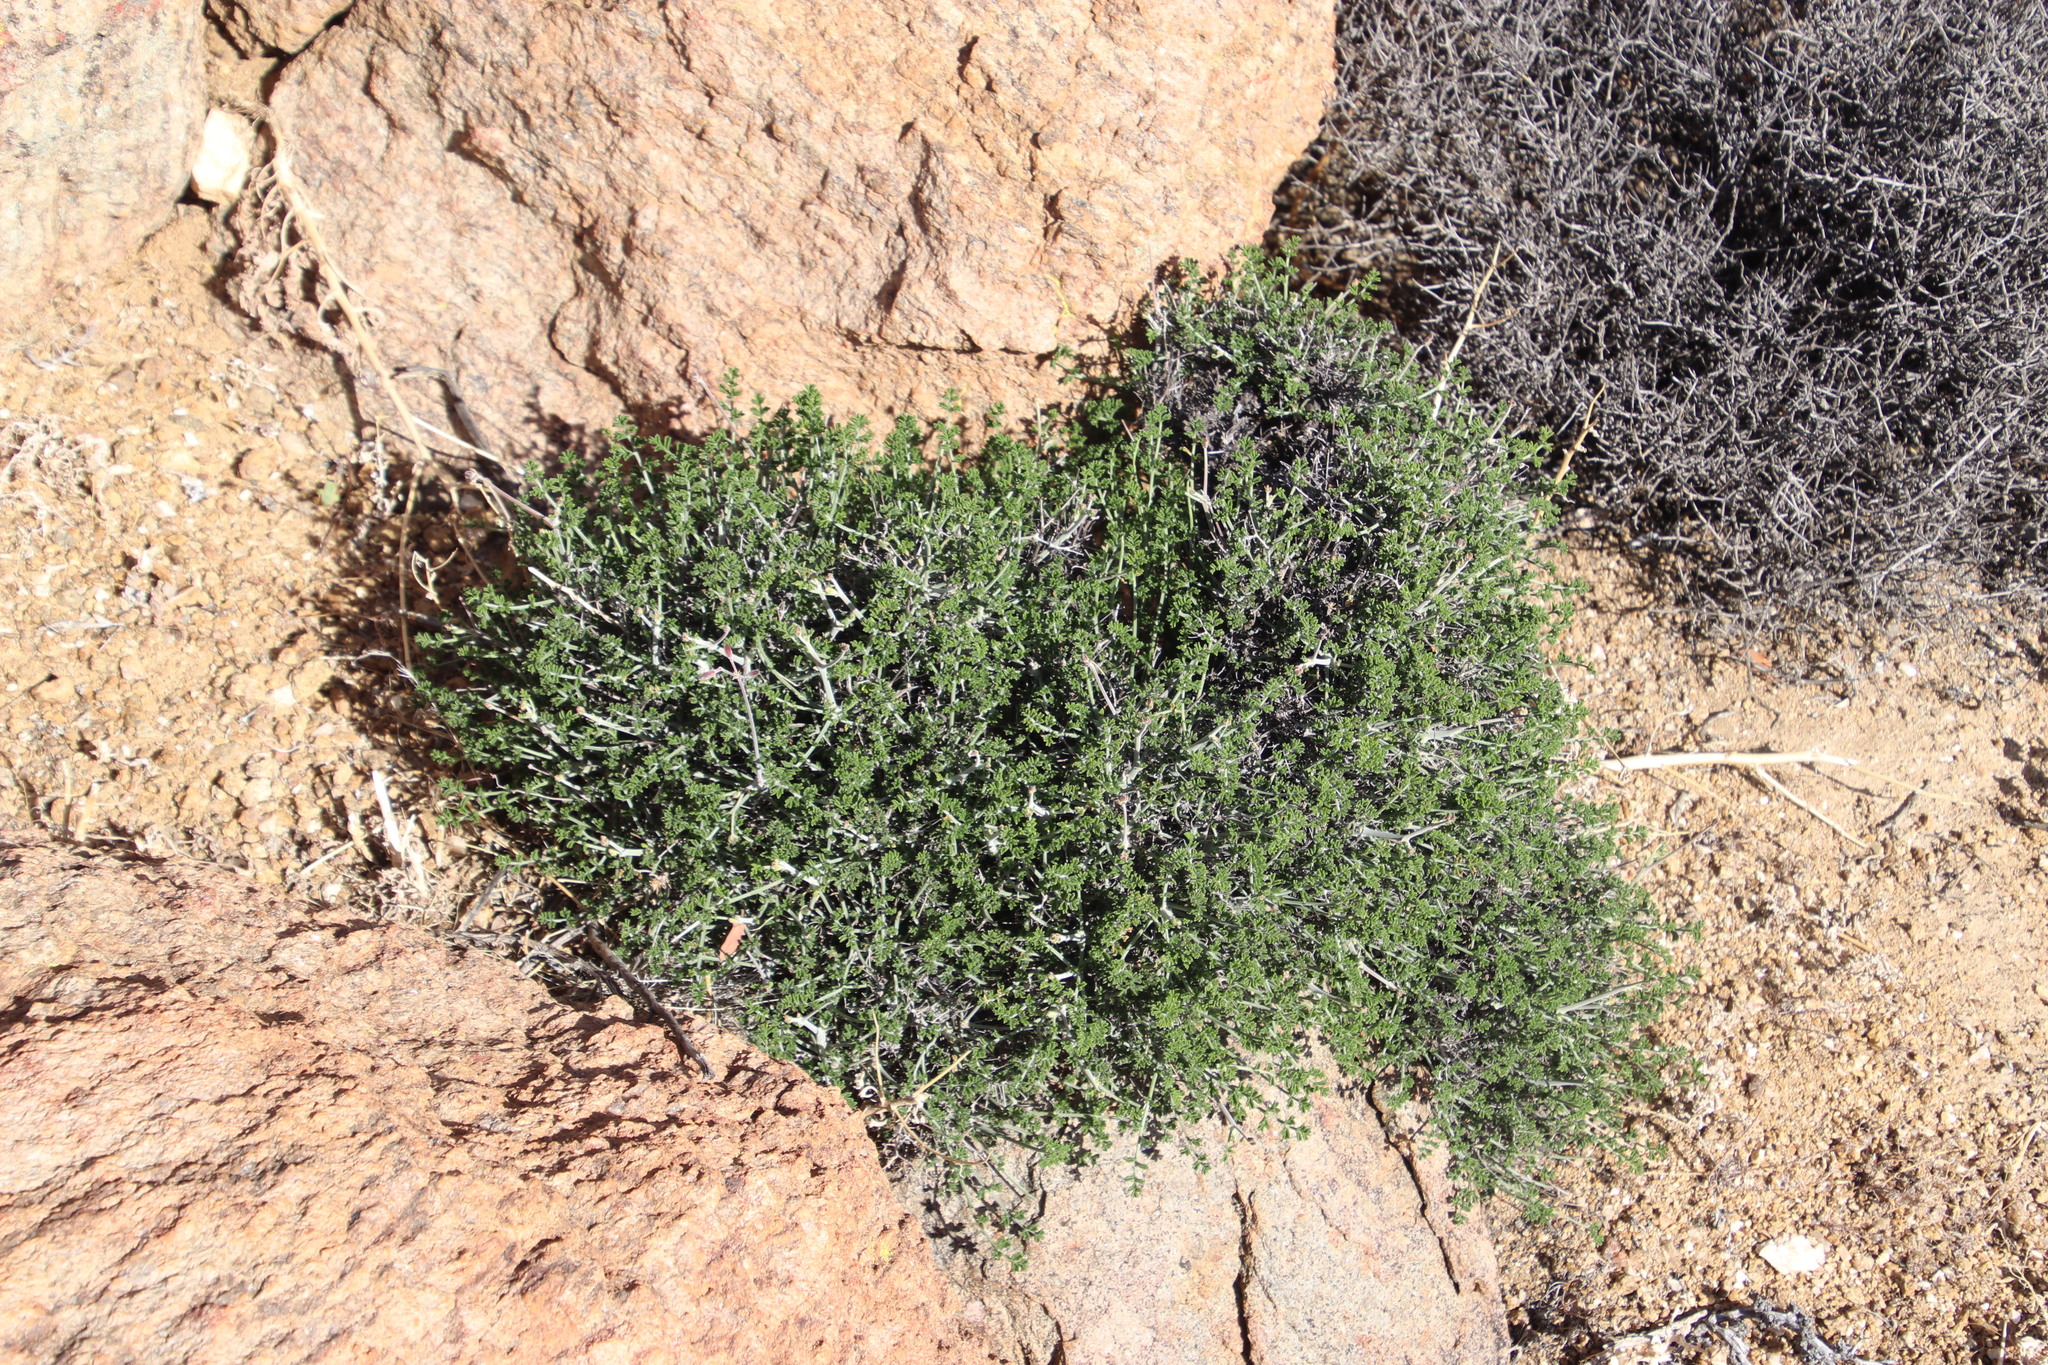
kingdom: Plantae
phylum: Tracheophyta
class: Magnoliopsida
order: Geraniales
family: Geraniaceae
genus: Pelargonium
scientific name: Pelargonium dasyphyllum
